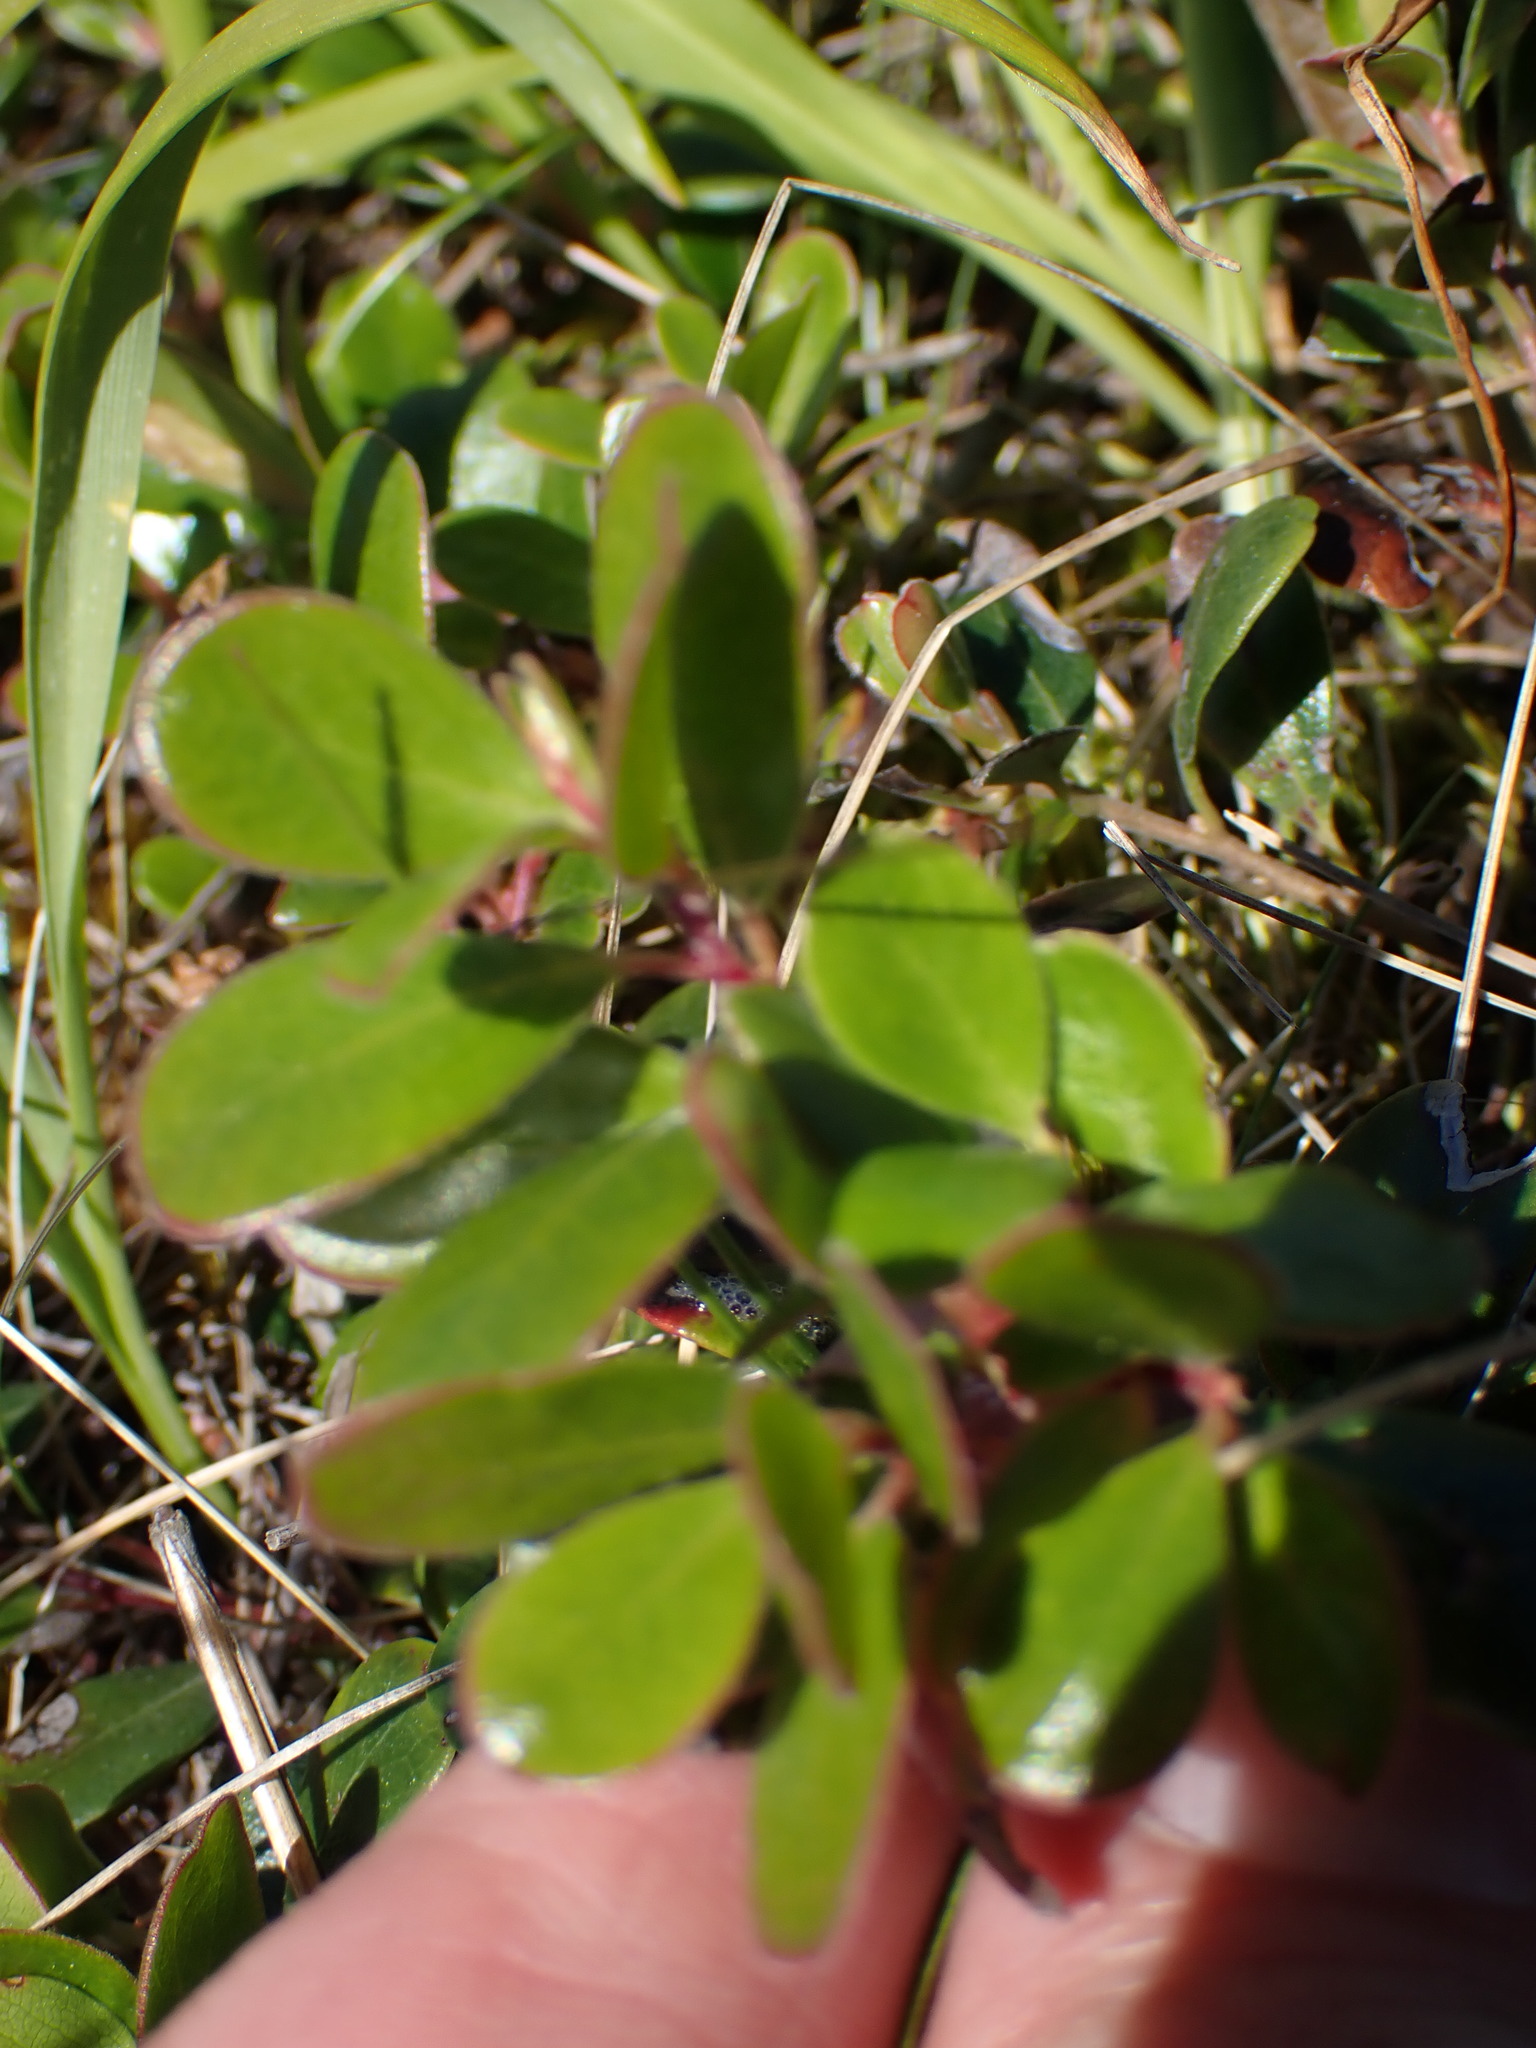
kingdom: Plantae
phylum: Tracheophyta
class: Magnoliopsida
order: Ericales
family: Ericaceae
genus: Arctostaphylos
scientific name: Arctostaphylos uva-ursi
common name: Bearberry
